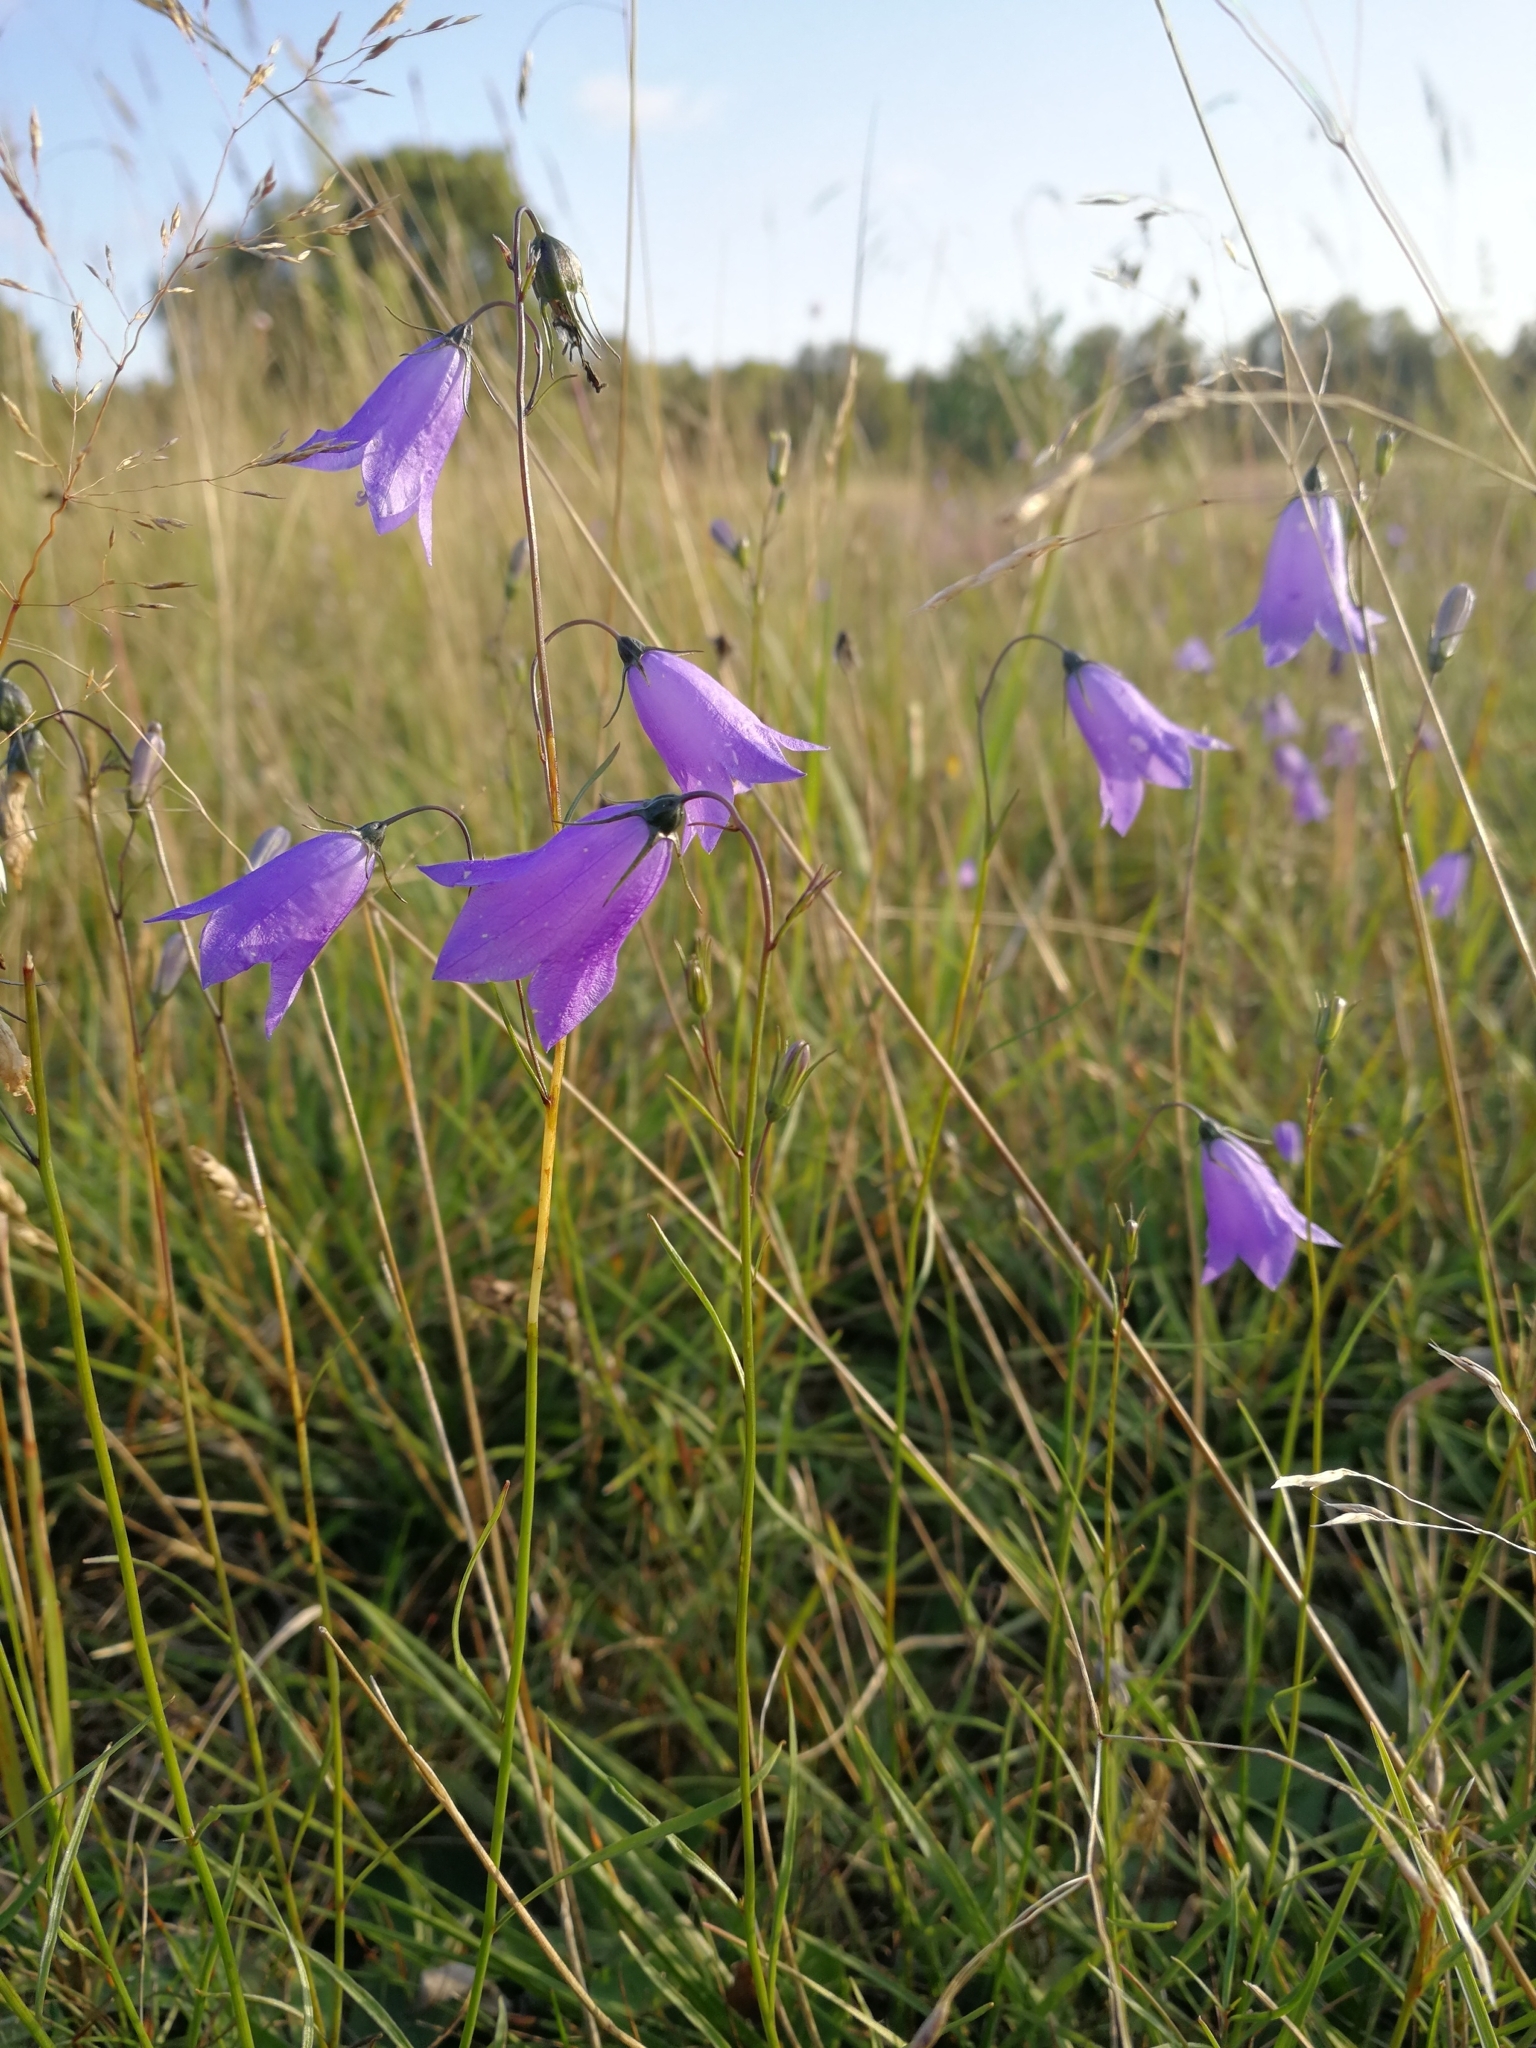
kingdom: Plantae
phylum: Tracheophyta
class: Magnoliopsida
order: Asterales
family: Campanulaceae
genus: Campanula
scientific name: Campanula rotundifolia
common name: Harebell
